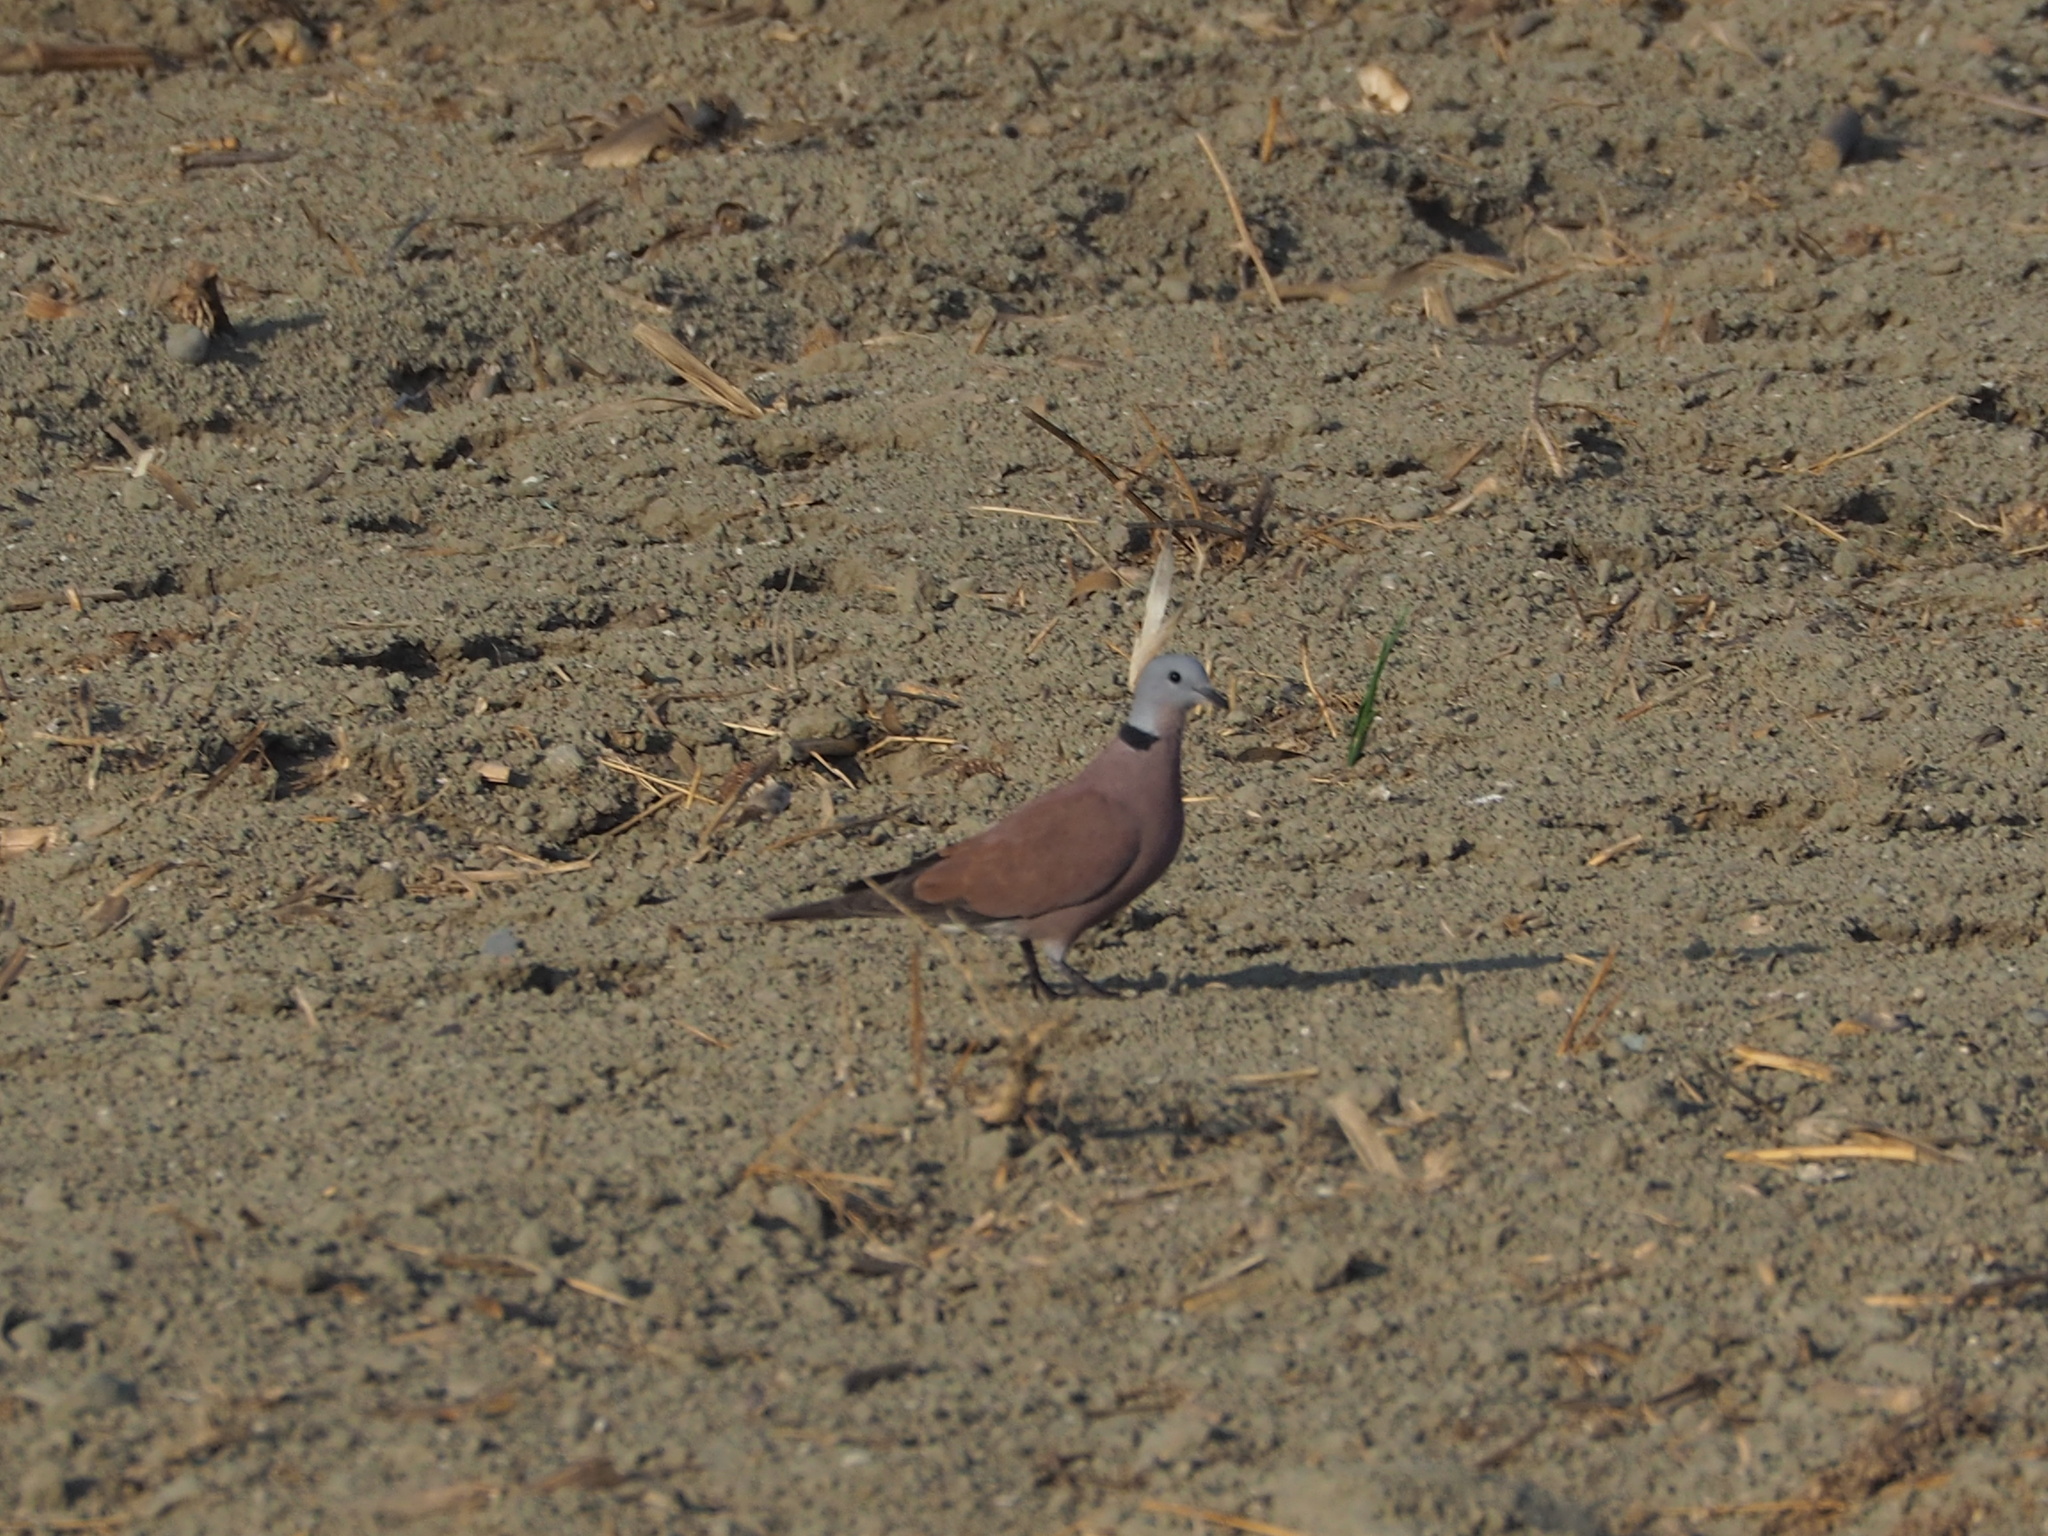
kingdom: Animalia
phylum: Chordata
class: Aves
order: Columbiformes
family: Columbidae
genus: Streptopelia
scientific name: Streptopelia tranquebarica
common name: Red turtle dove
